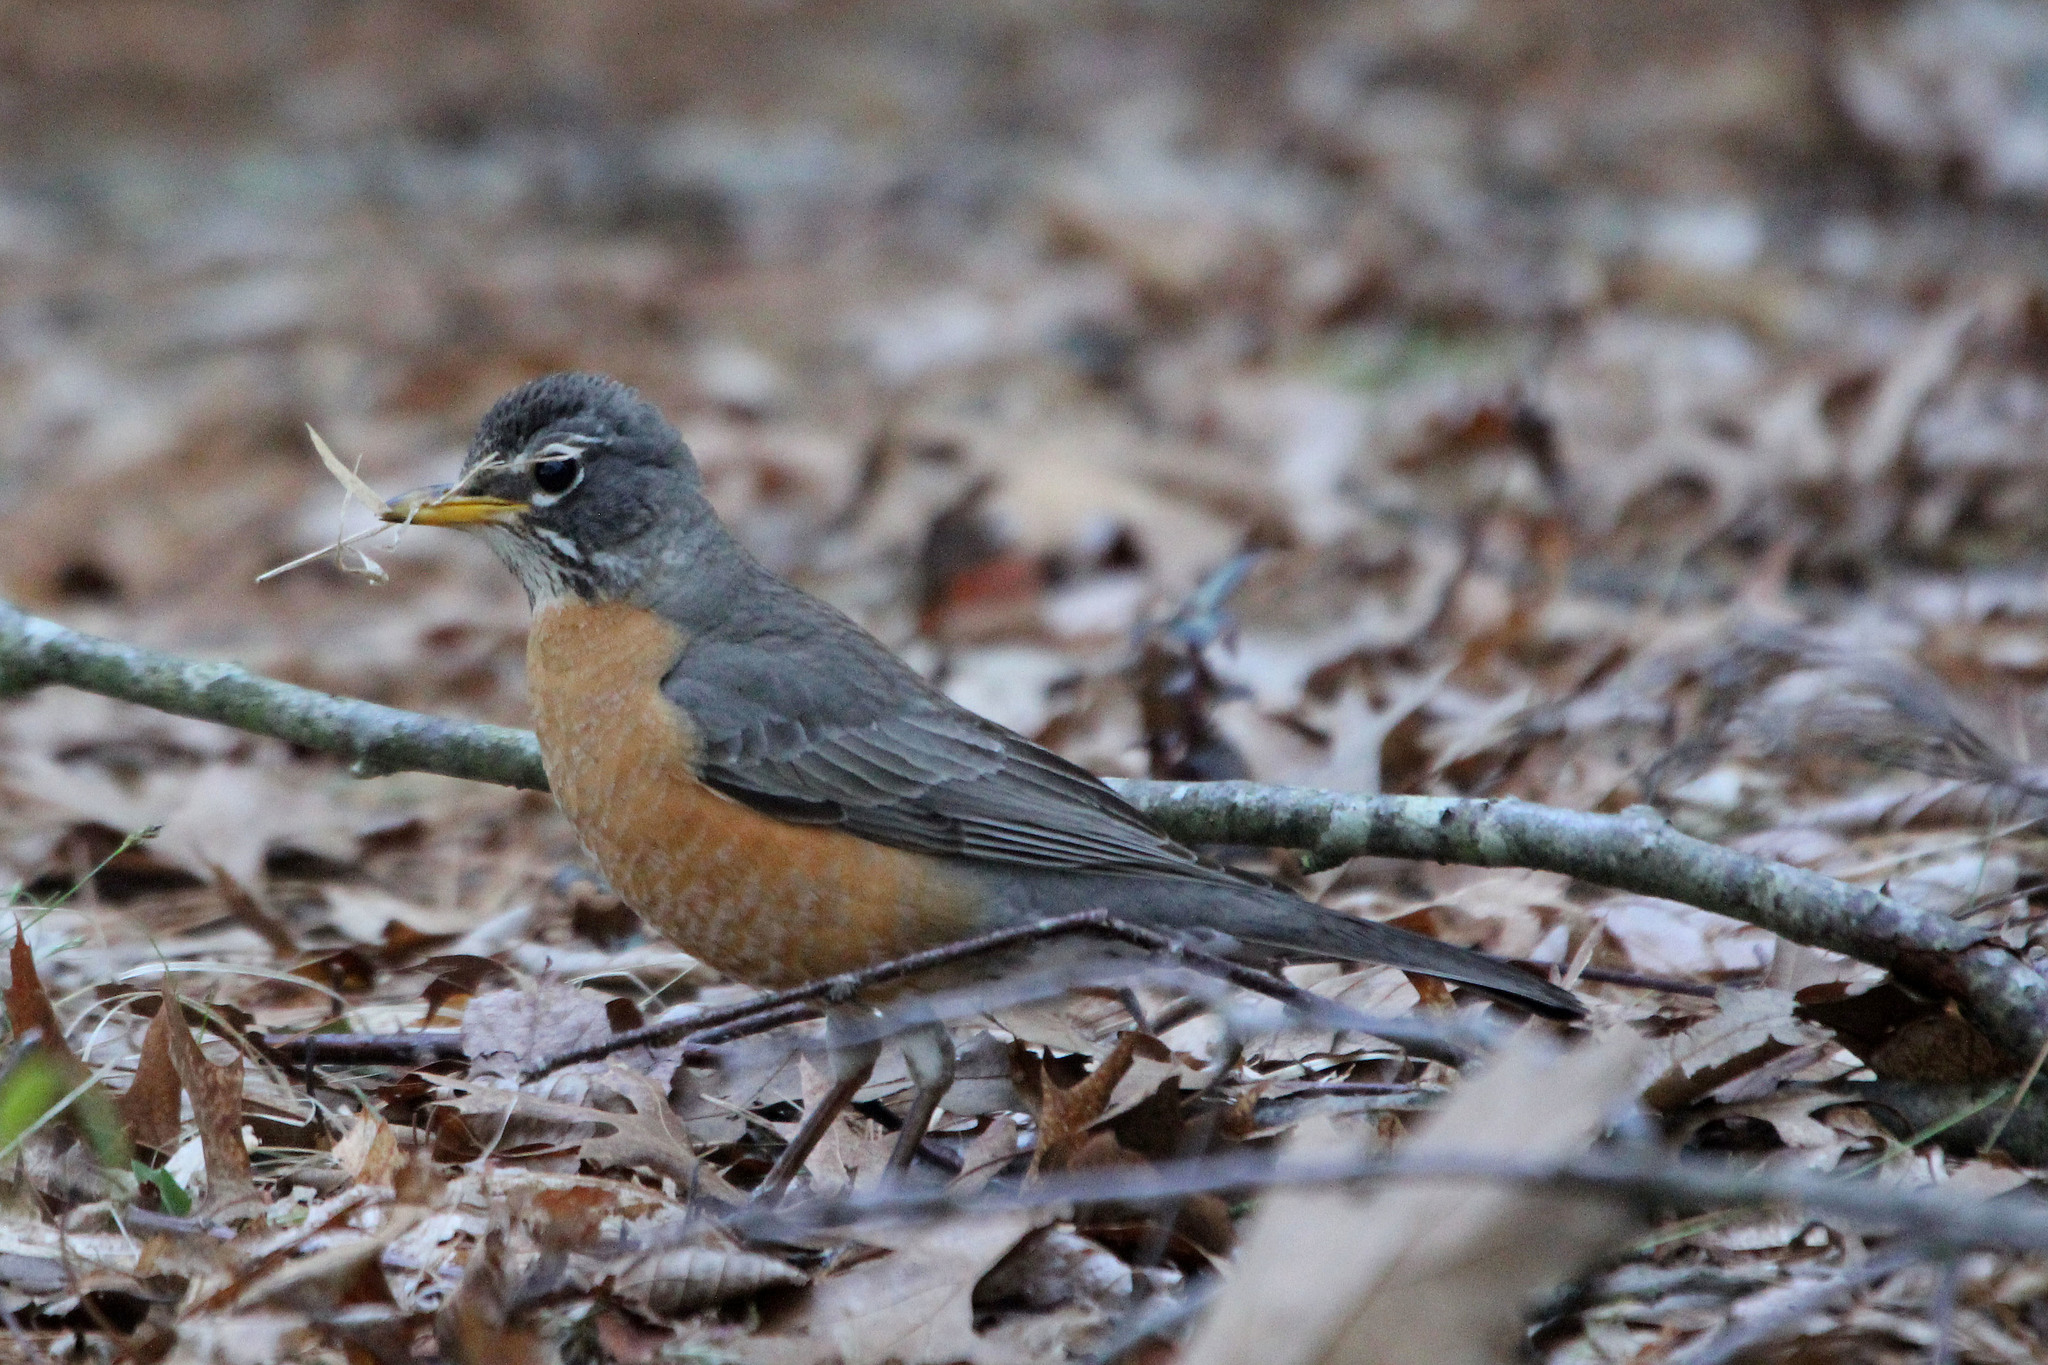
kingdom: Animalia
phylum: Chordata
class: Aves
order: Passeriformes
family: Turdidae
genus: Turdus
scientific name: Turdus migratorius
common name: American robin
